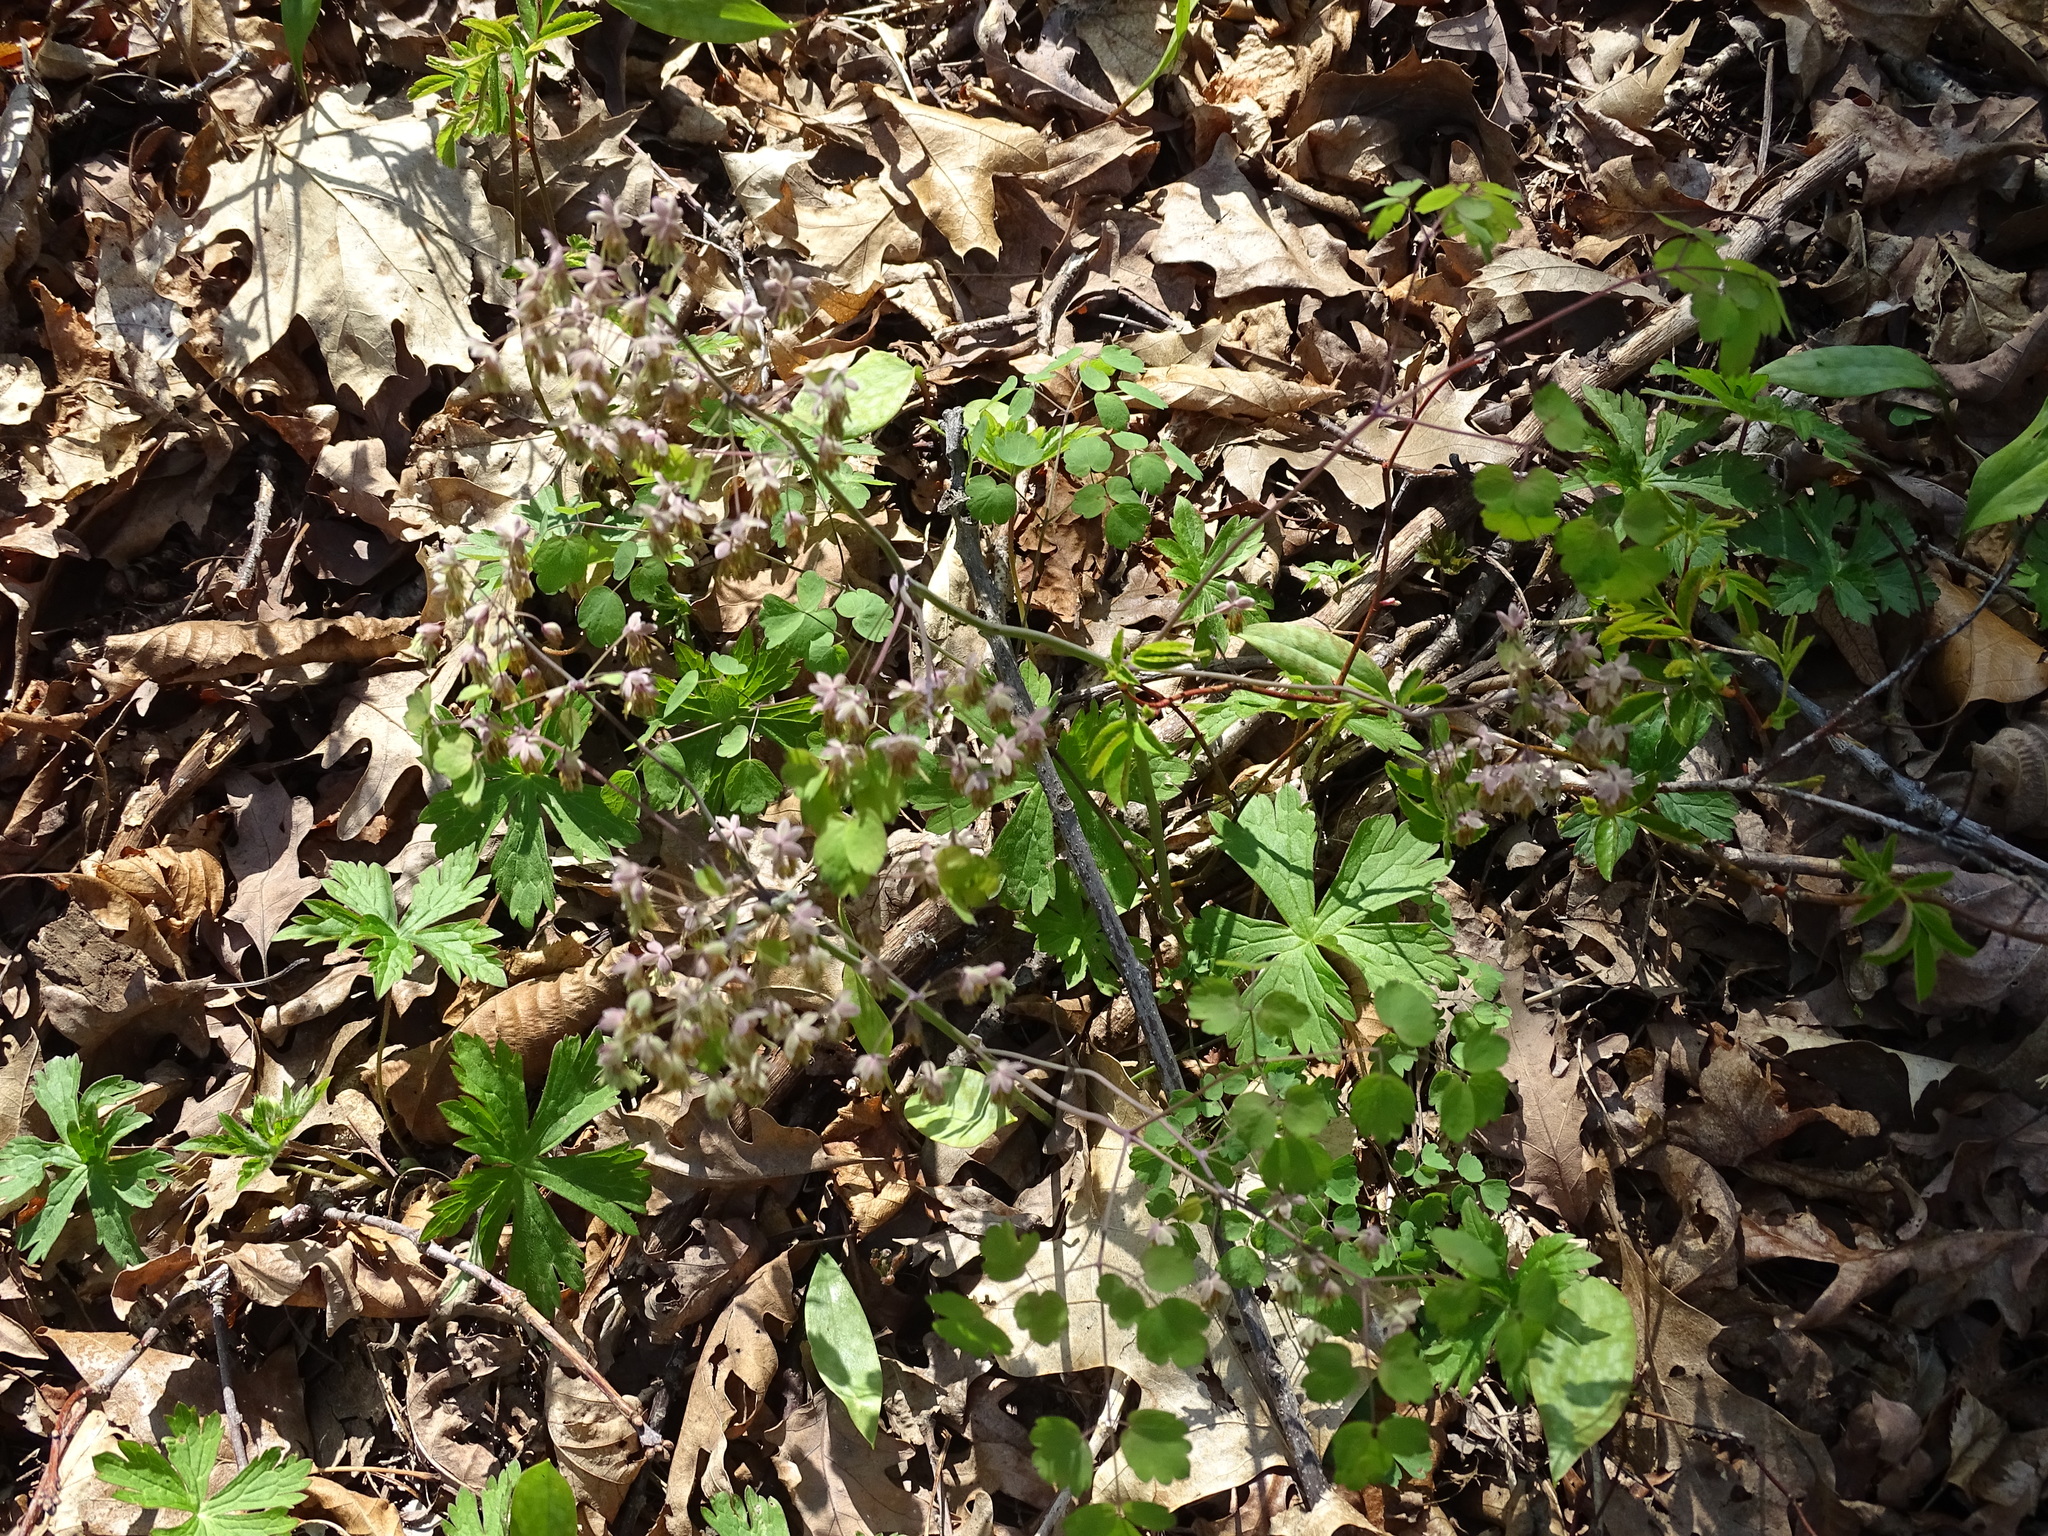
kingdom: Plantae
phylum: Tracheophyta
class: Magnoliopsida
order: Ranunculales
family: Ranunculaceae
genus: Thalictrum
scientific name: Thalictrum dioicum
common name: Early meadow-rue
